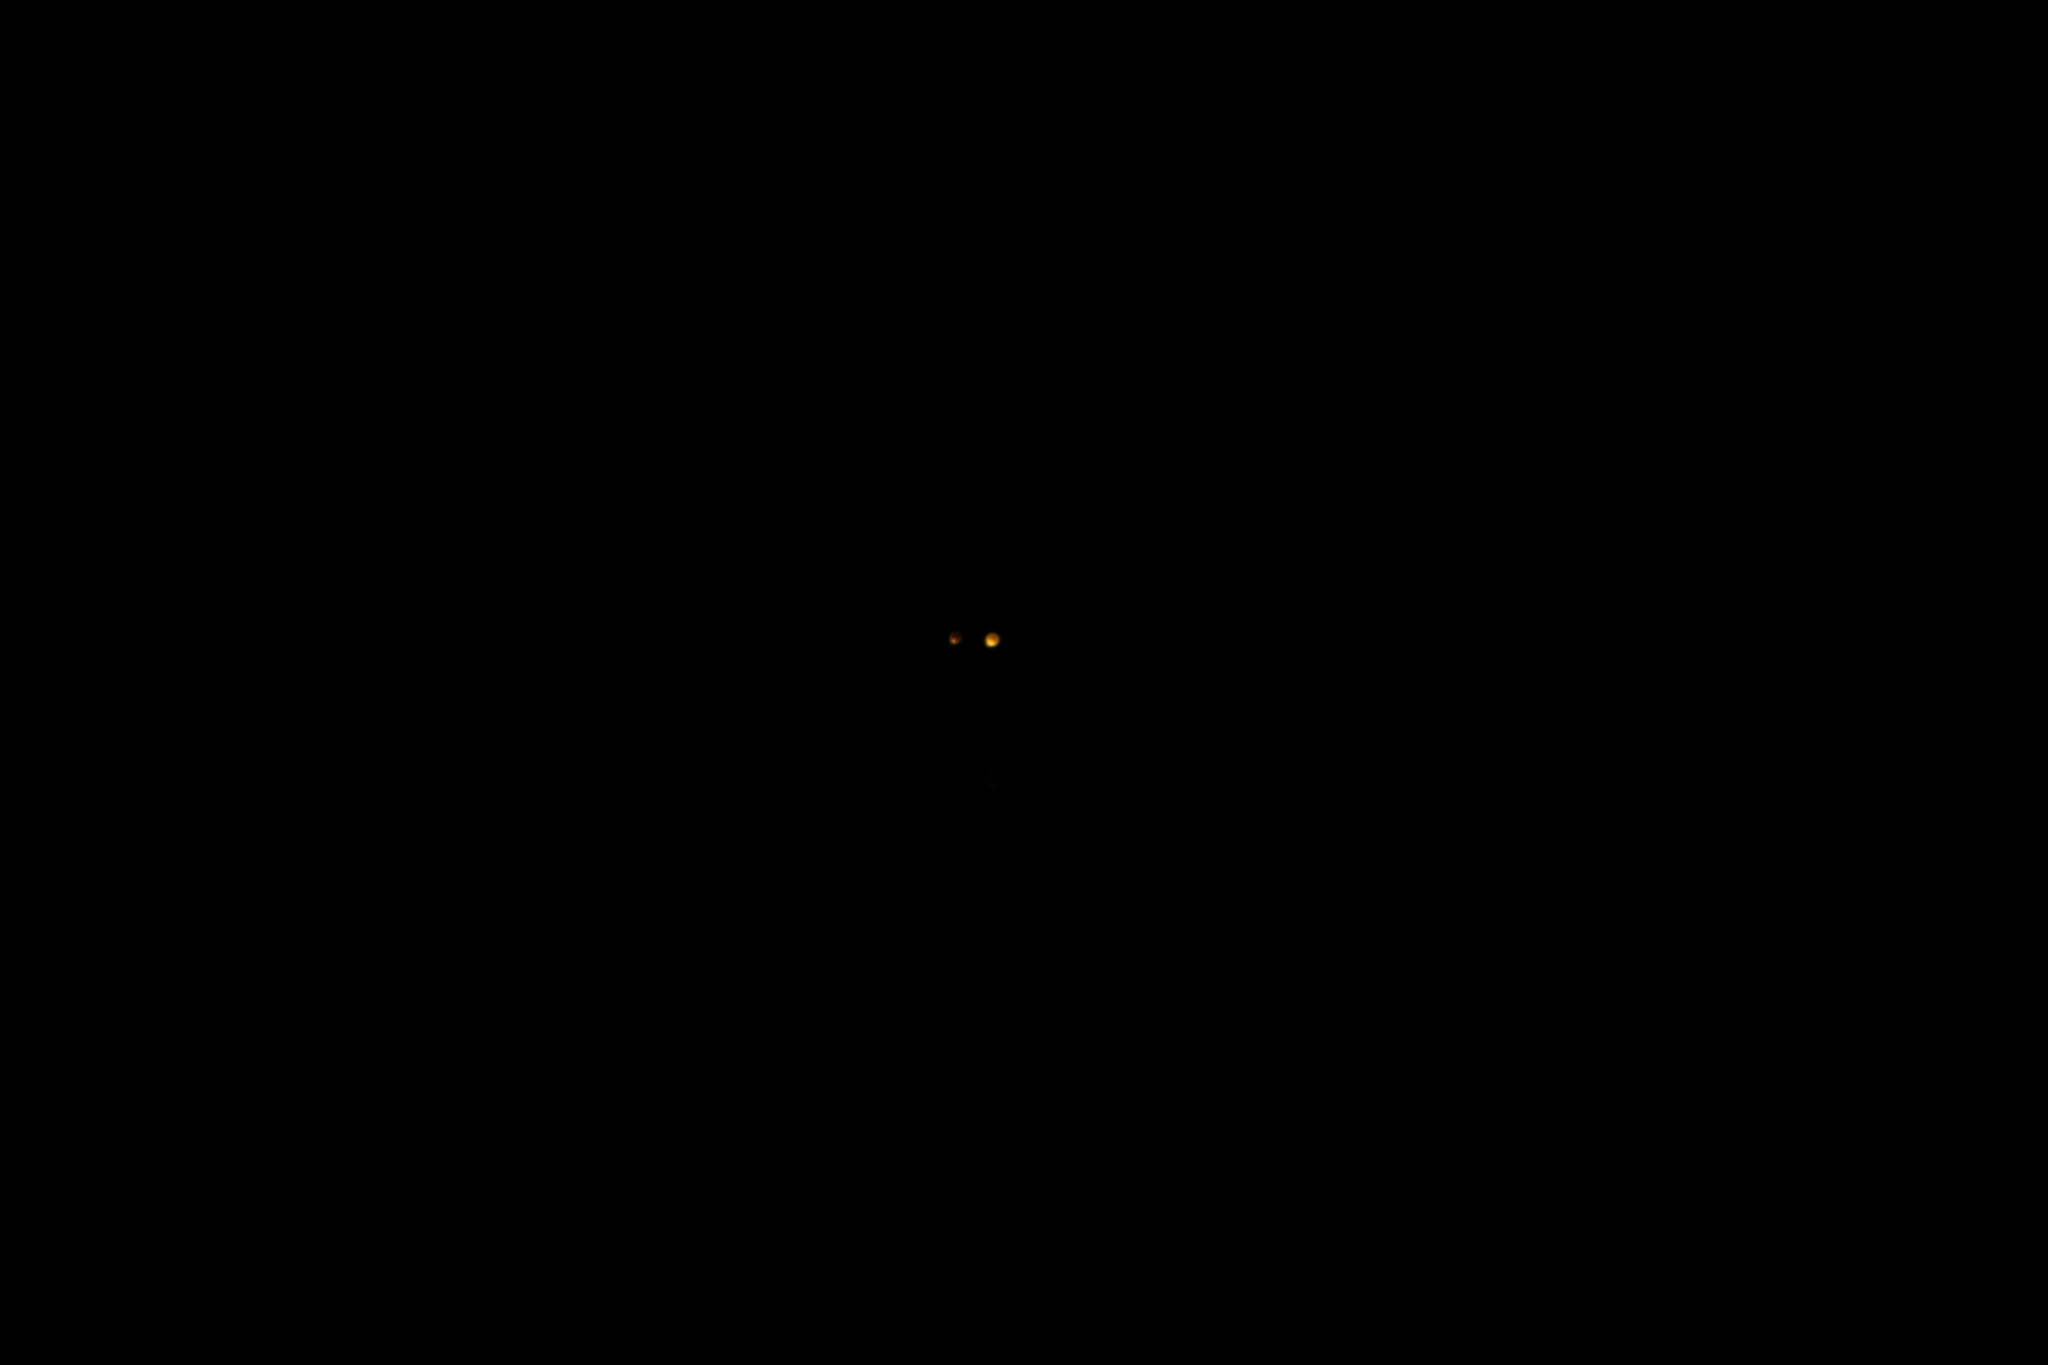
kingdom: Animalia
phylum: Chordata
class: Mammalia
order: Carnivora
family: Mustelidae
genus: Lutra
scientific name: Lutra lutra
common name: European otter
